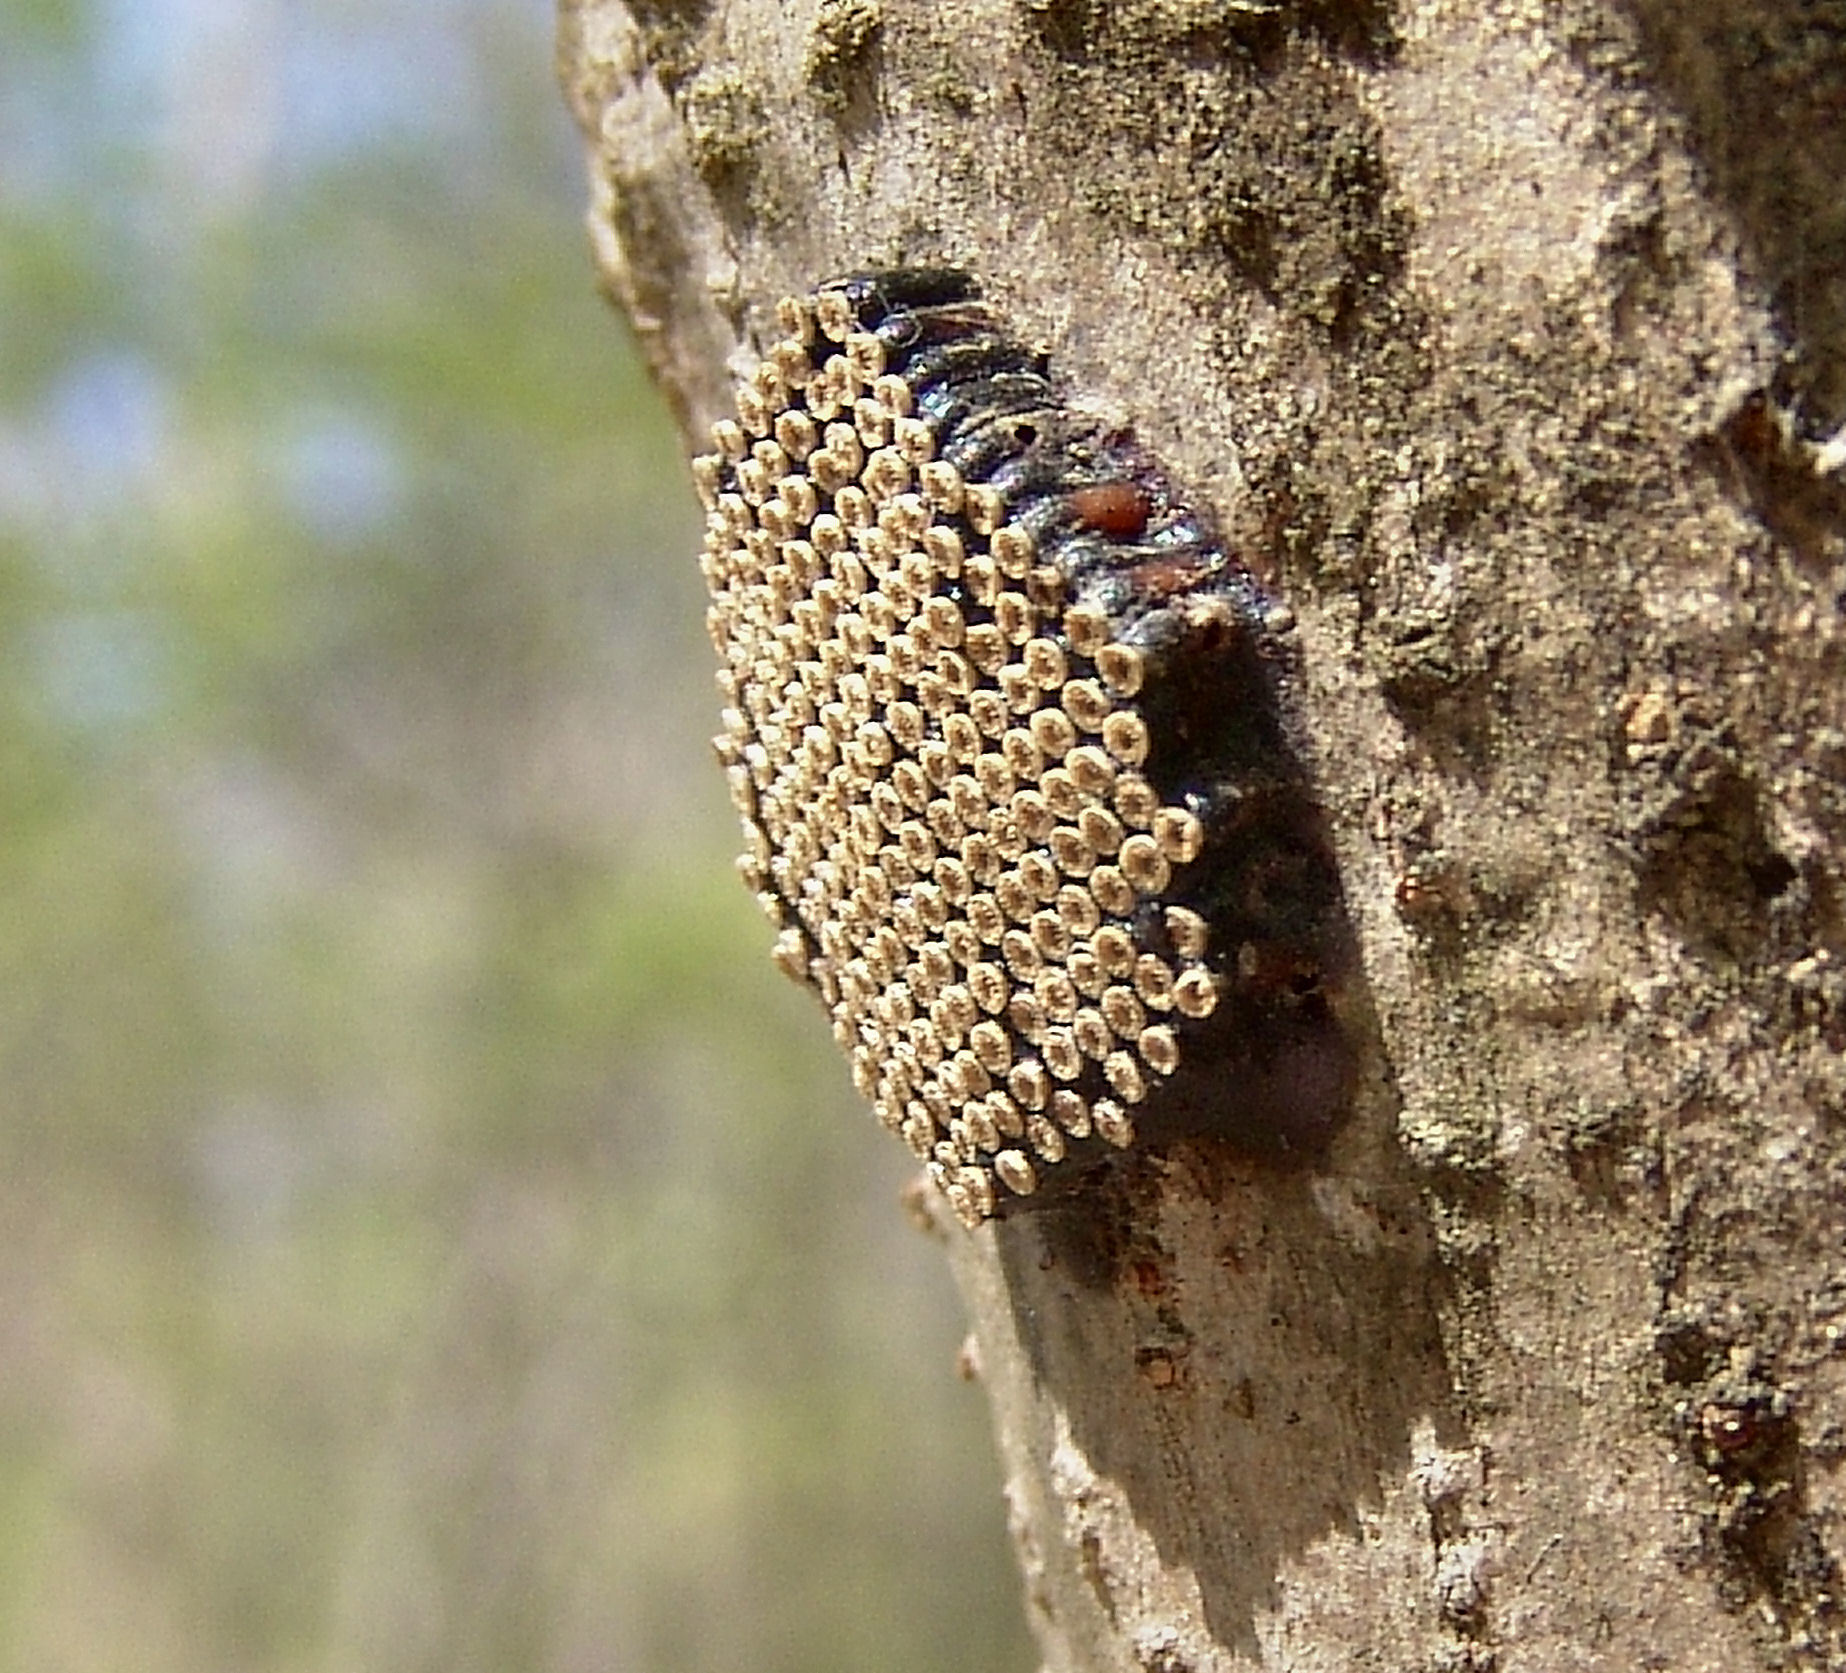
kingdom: Animalia
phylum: Arthropoda
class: Insecta
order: Hemiptera
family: Reduviidae
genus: Arilus
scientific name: Arilus cristatus
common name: North american wheel bug
